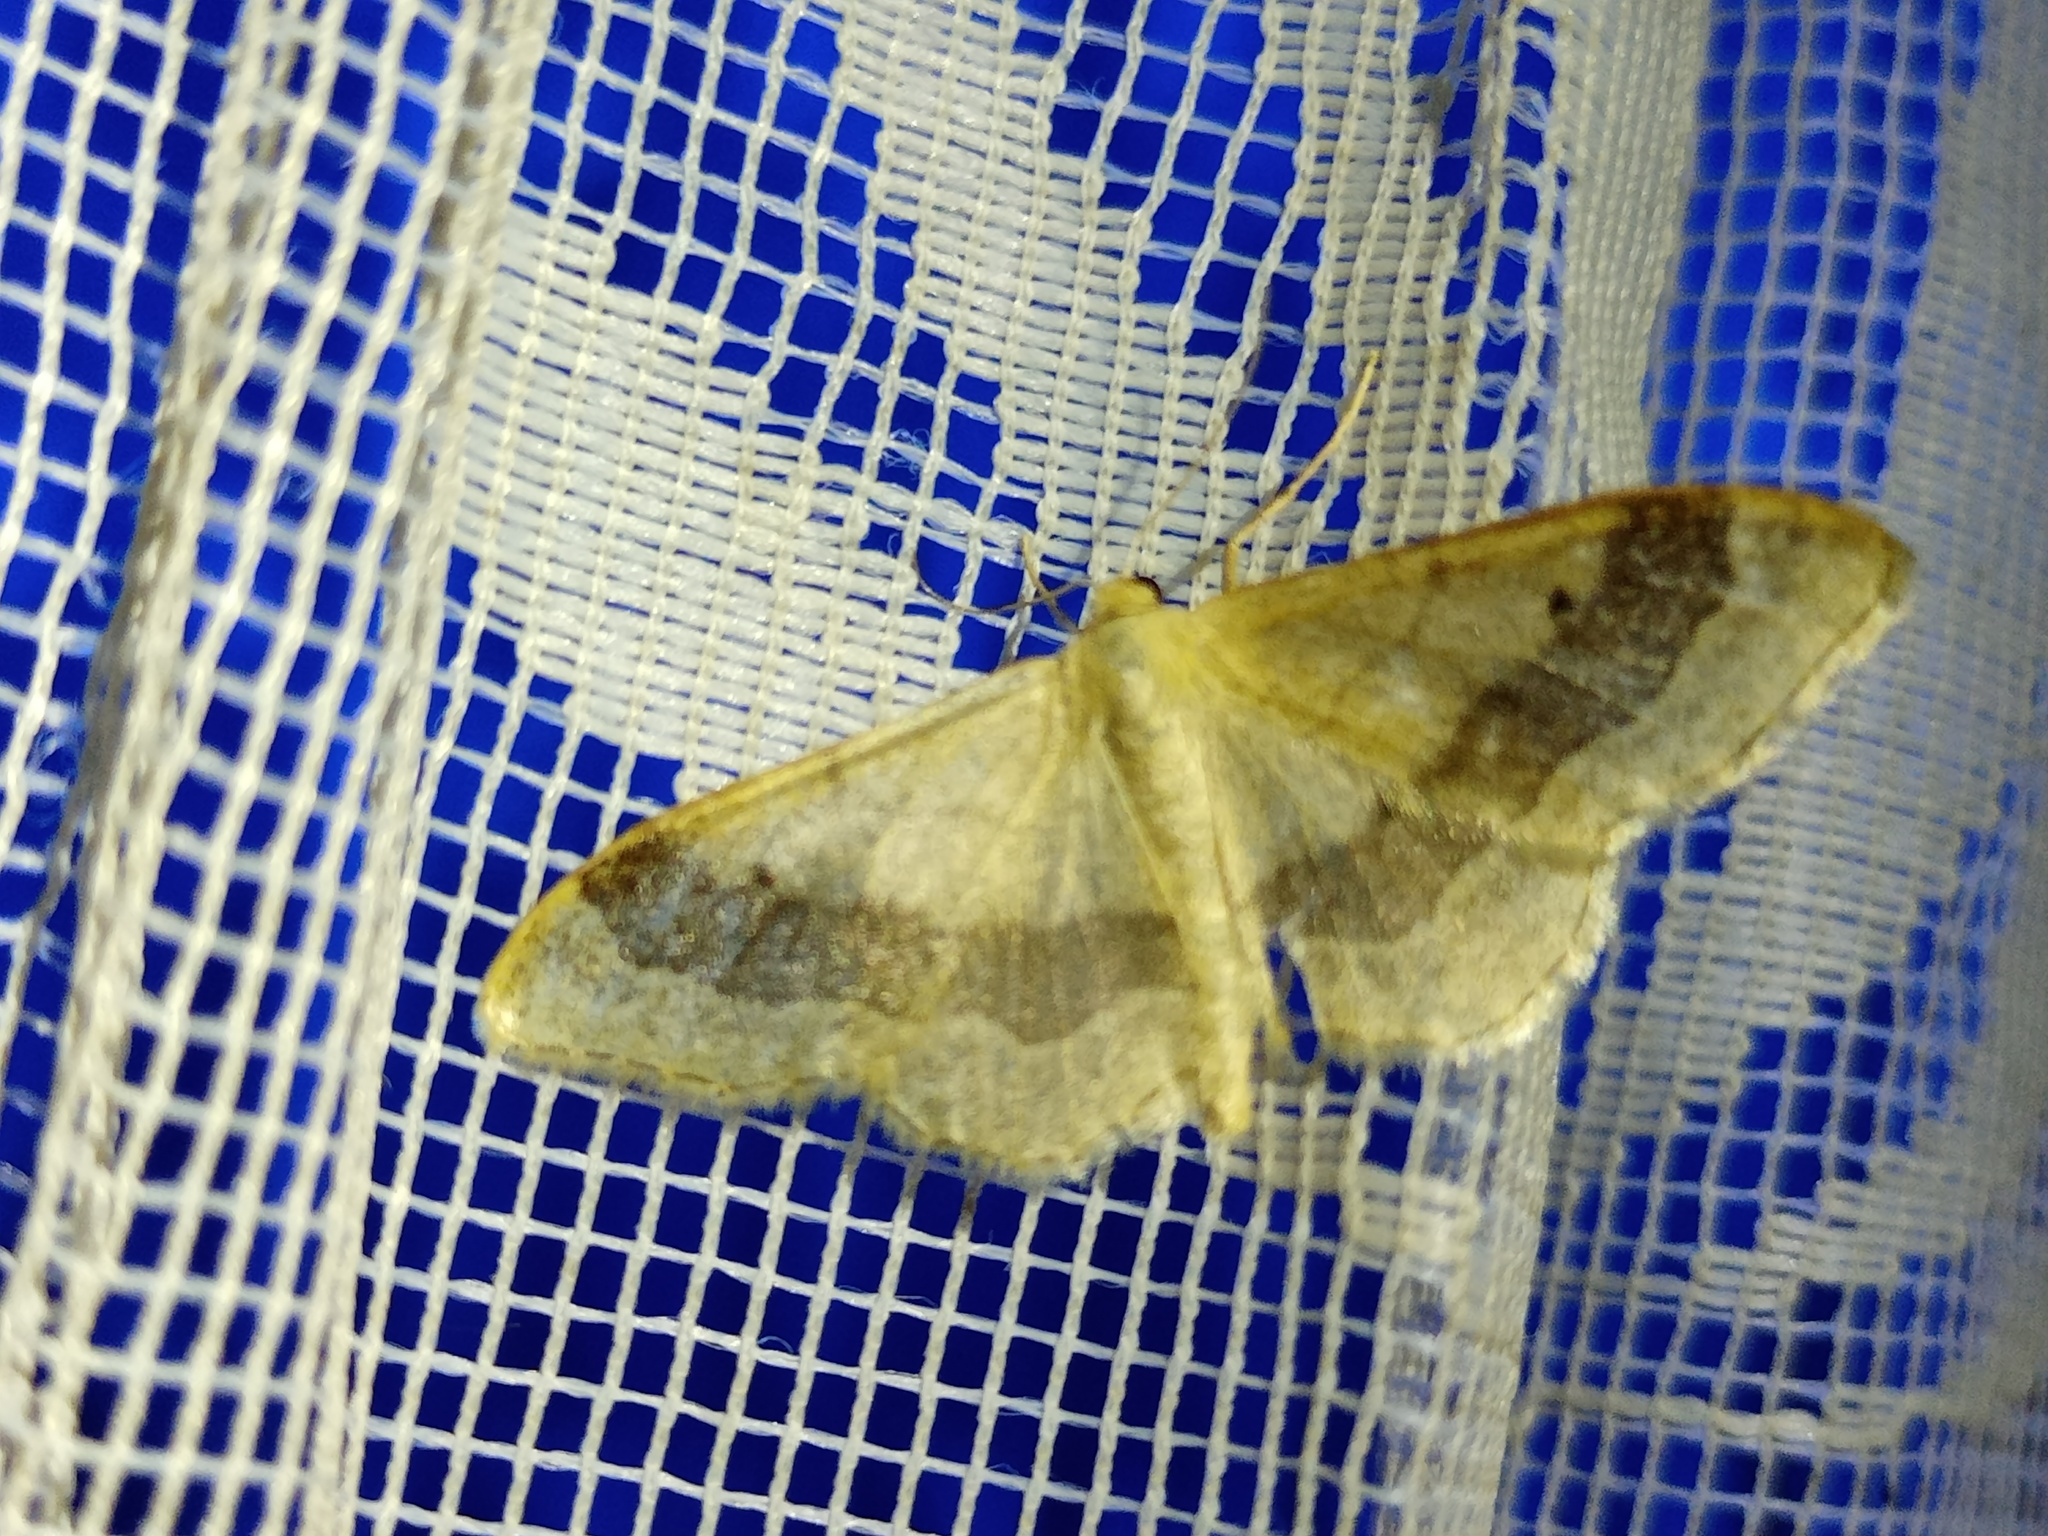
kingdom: Animalia
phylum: Arthropoda
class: Insecta
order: Lepidoptera
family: Geometridae
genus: Idaea
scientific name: Idaea aversata
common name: Riband wave
